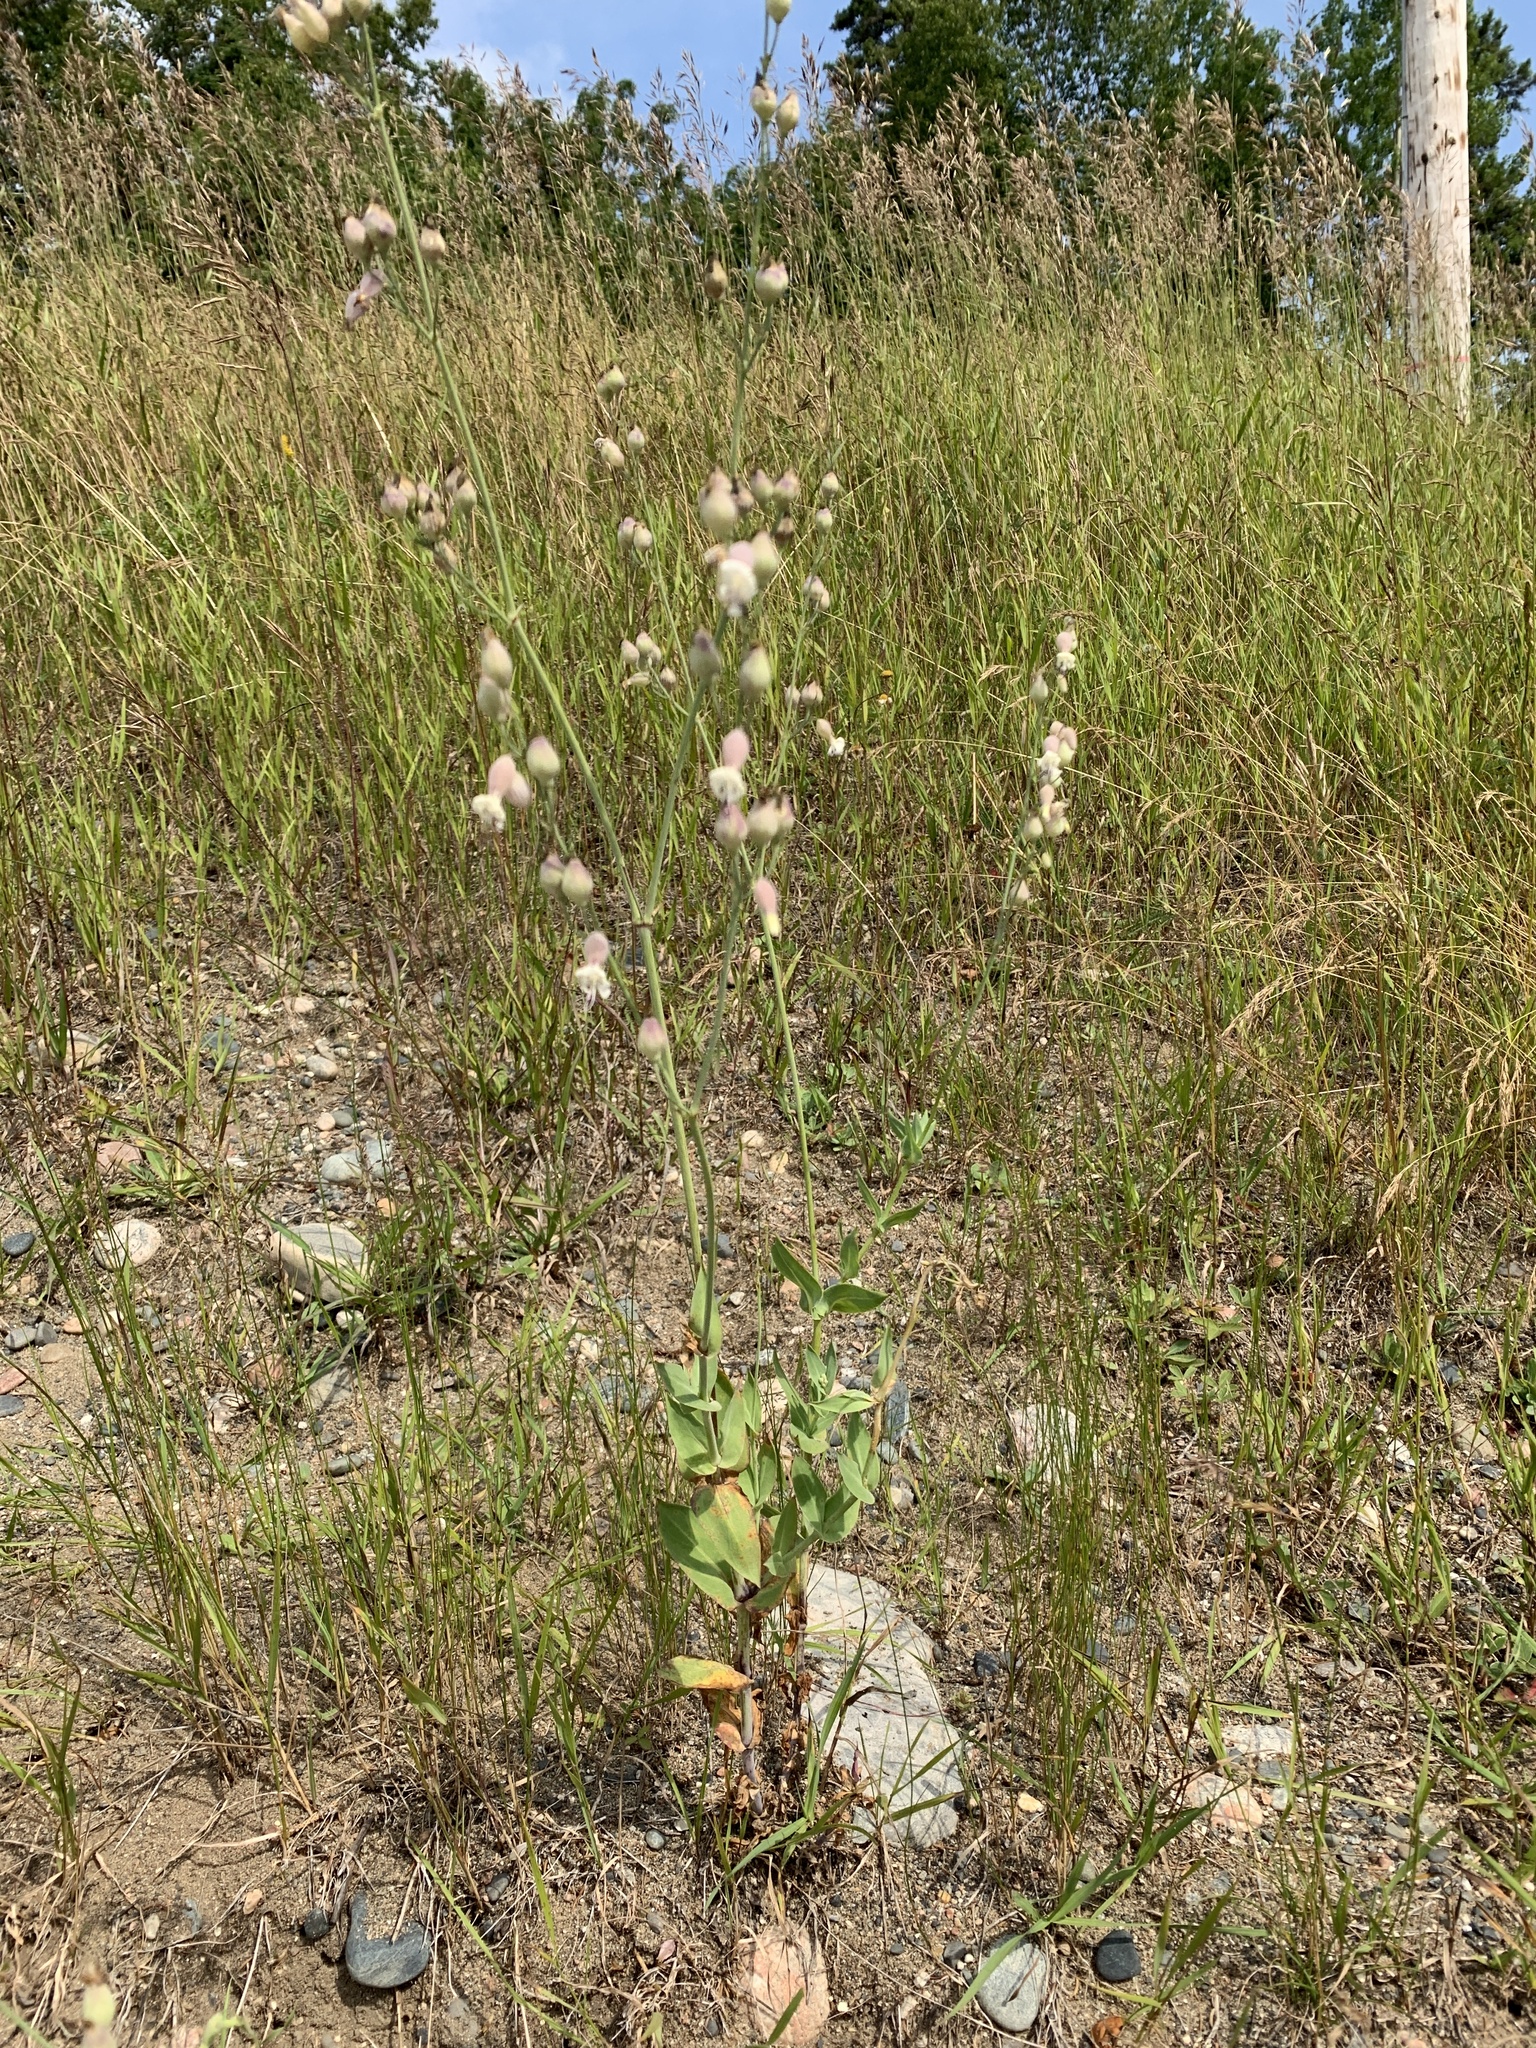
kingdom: Plantae
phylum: Tracheophyta
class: Magnoliopsida
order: Caryophyllales
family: Caryophyllaceae
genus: Silene
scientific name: Silene vulgaris
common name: Bladder campion
